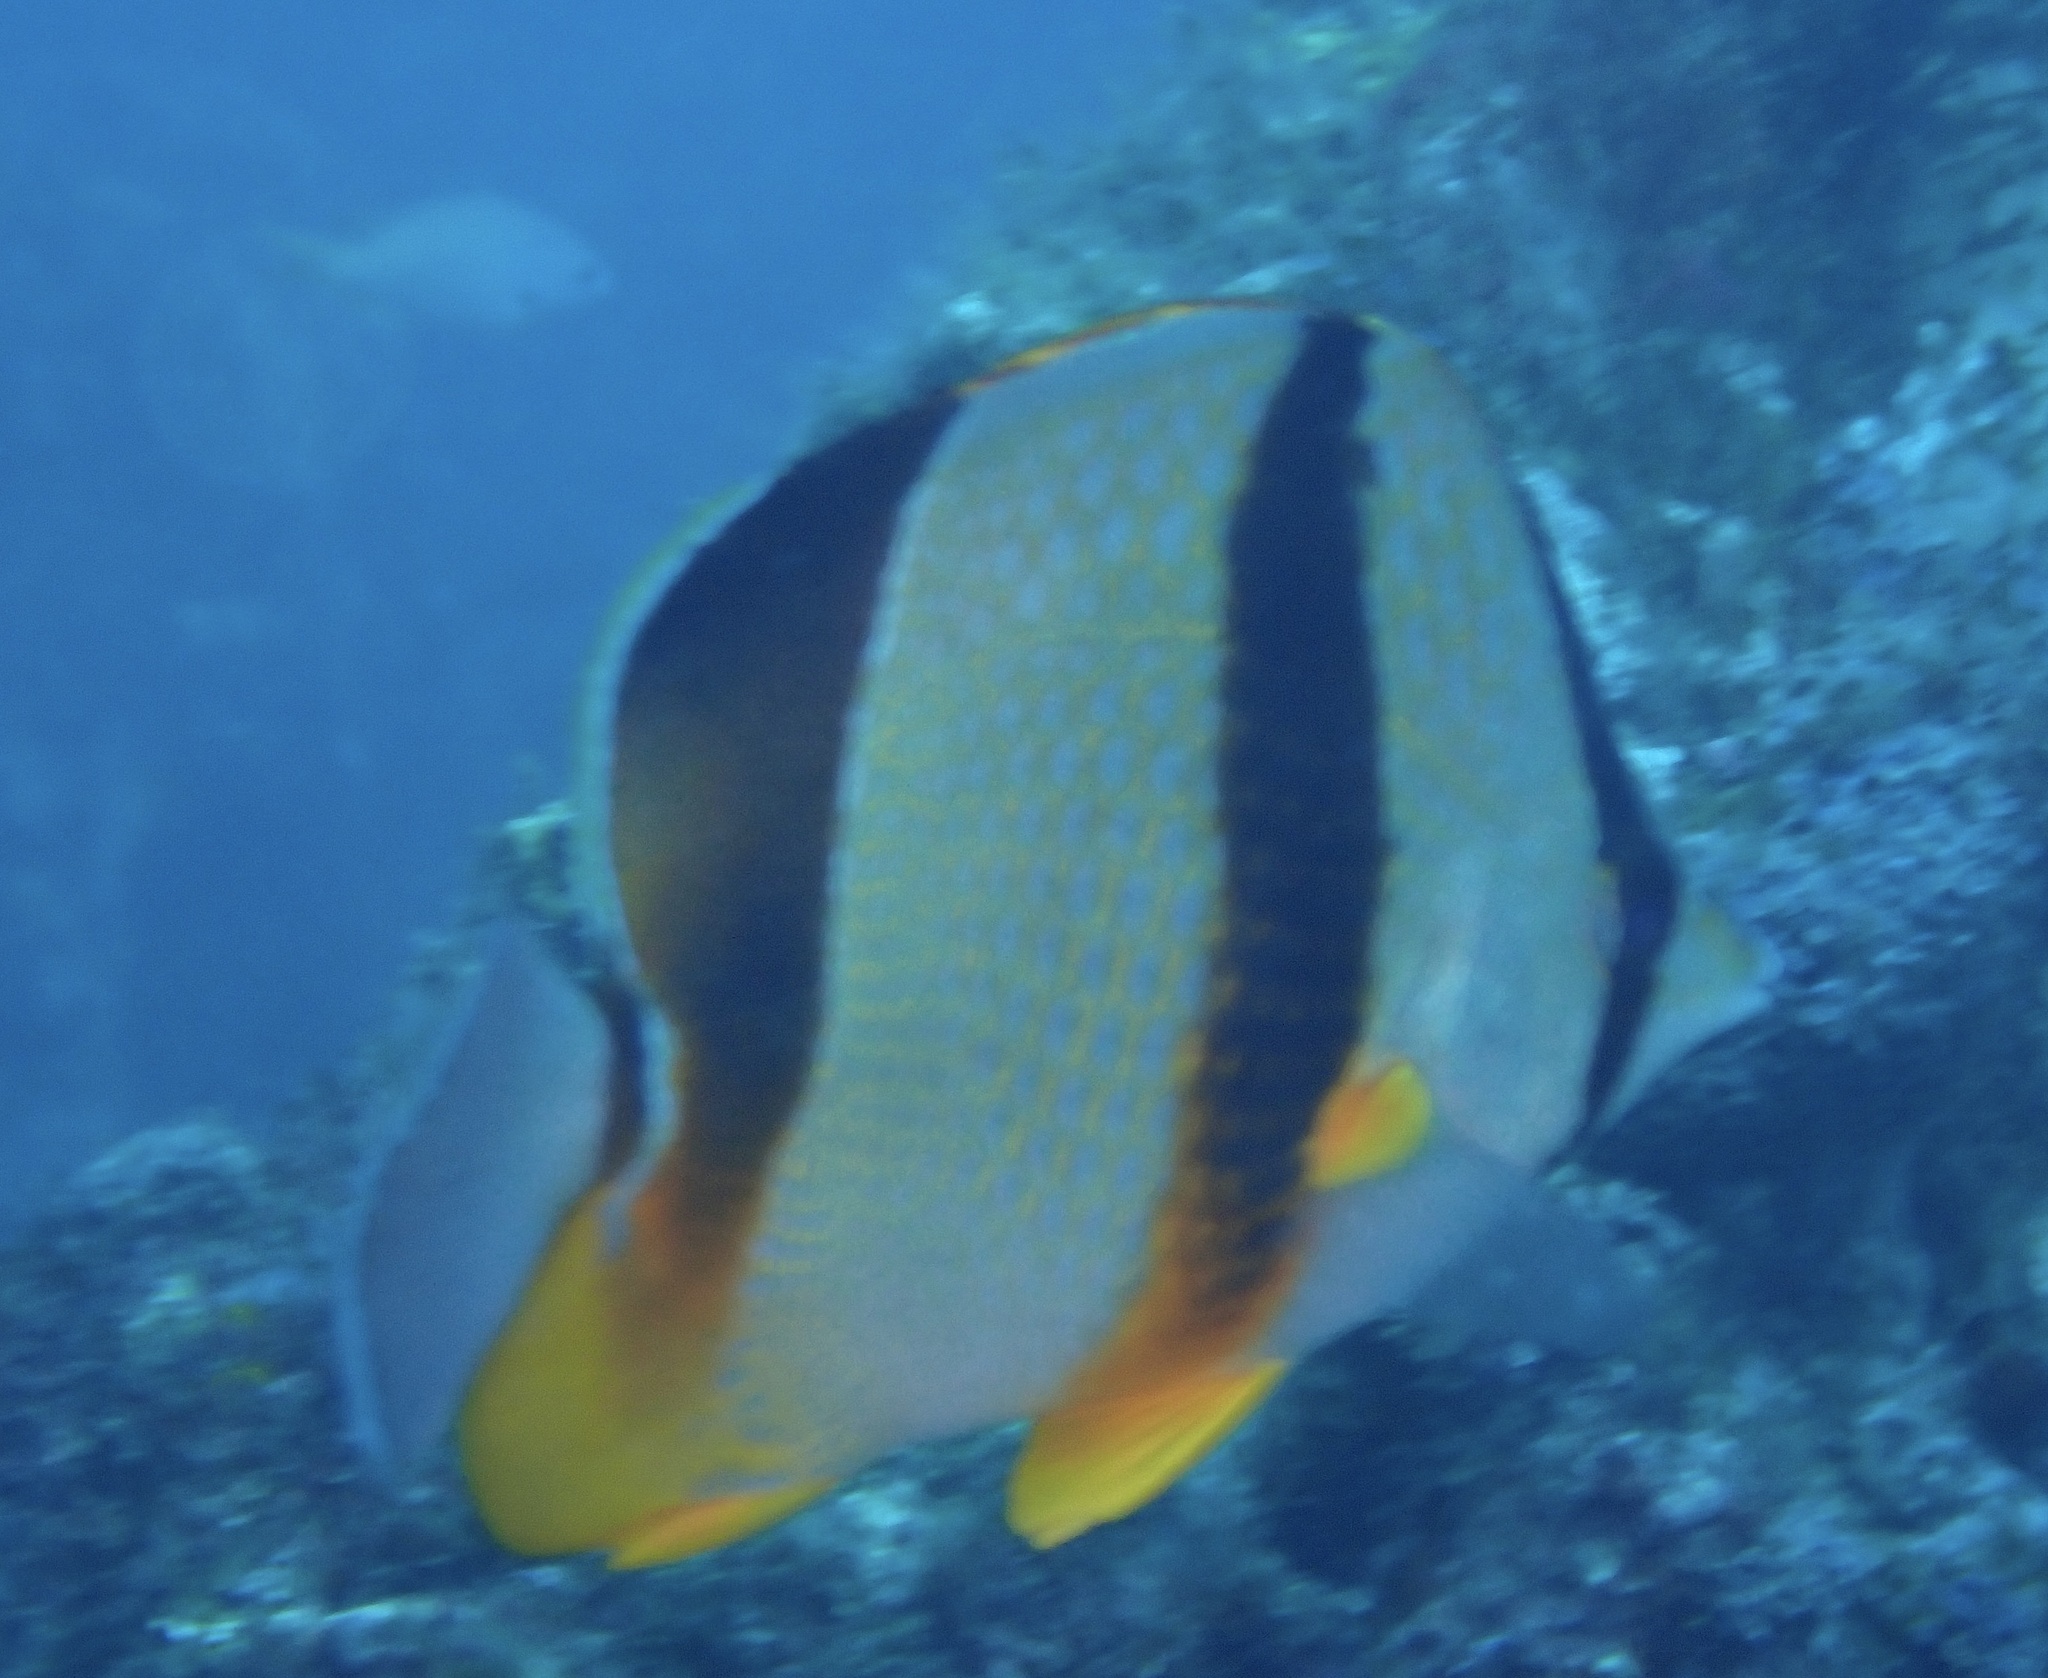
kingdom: Animalia
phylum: Chordata
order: Perciformes
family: Chaetodontidae
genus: Chaetodon
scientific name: Chaetodon robustus
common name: Three-banded butterflyfish
